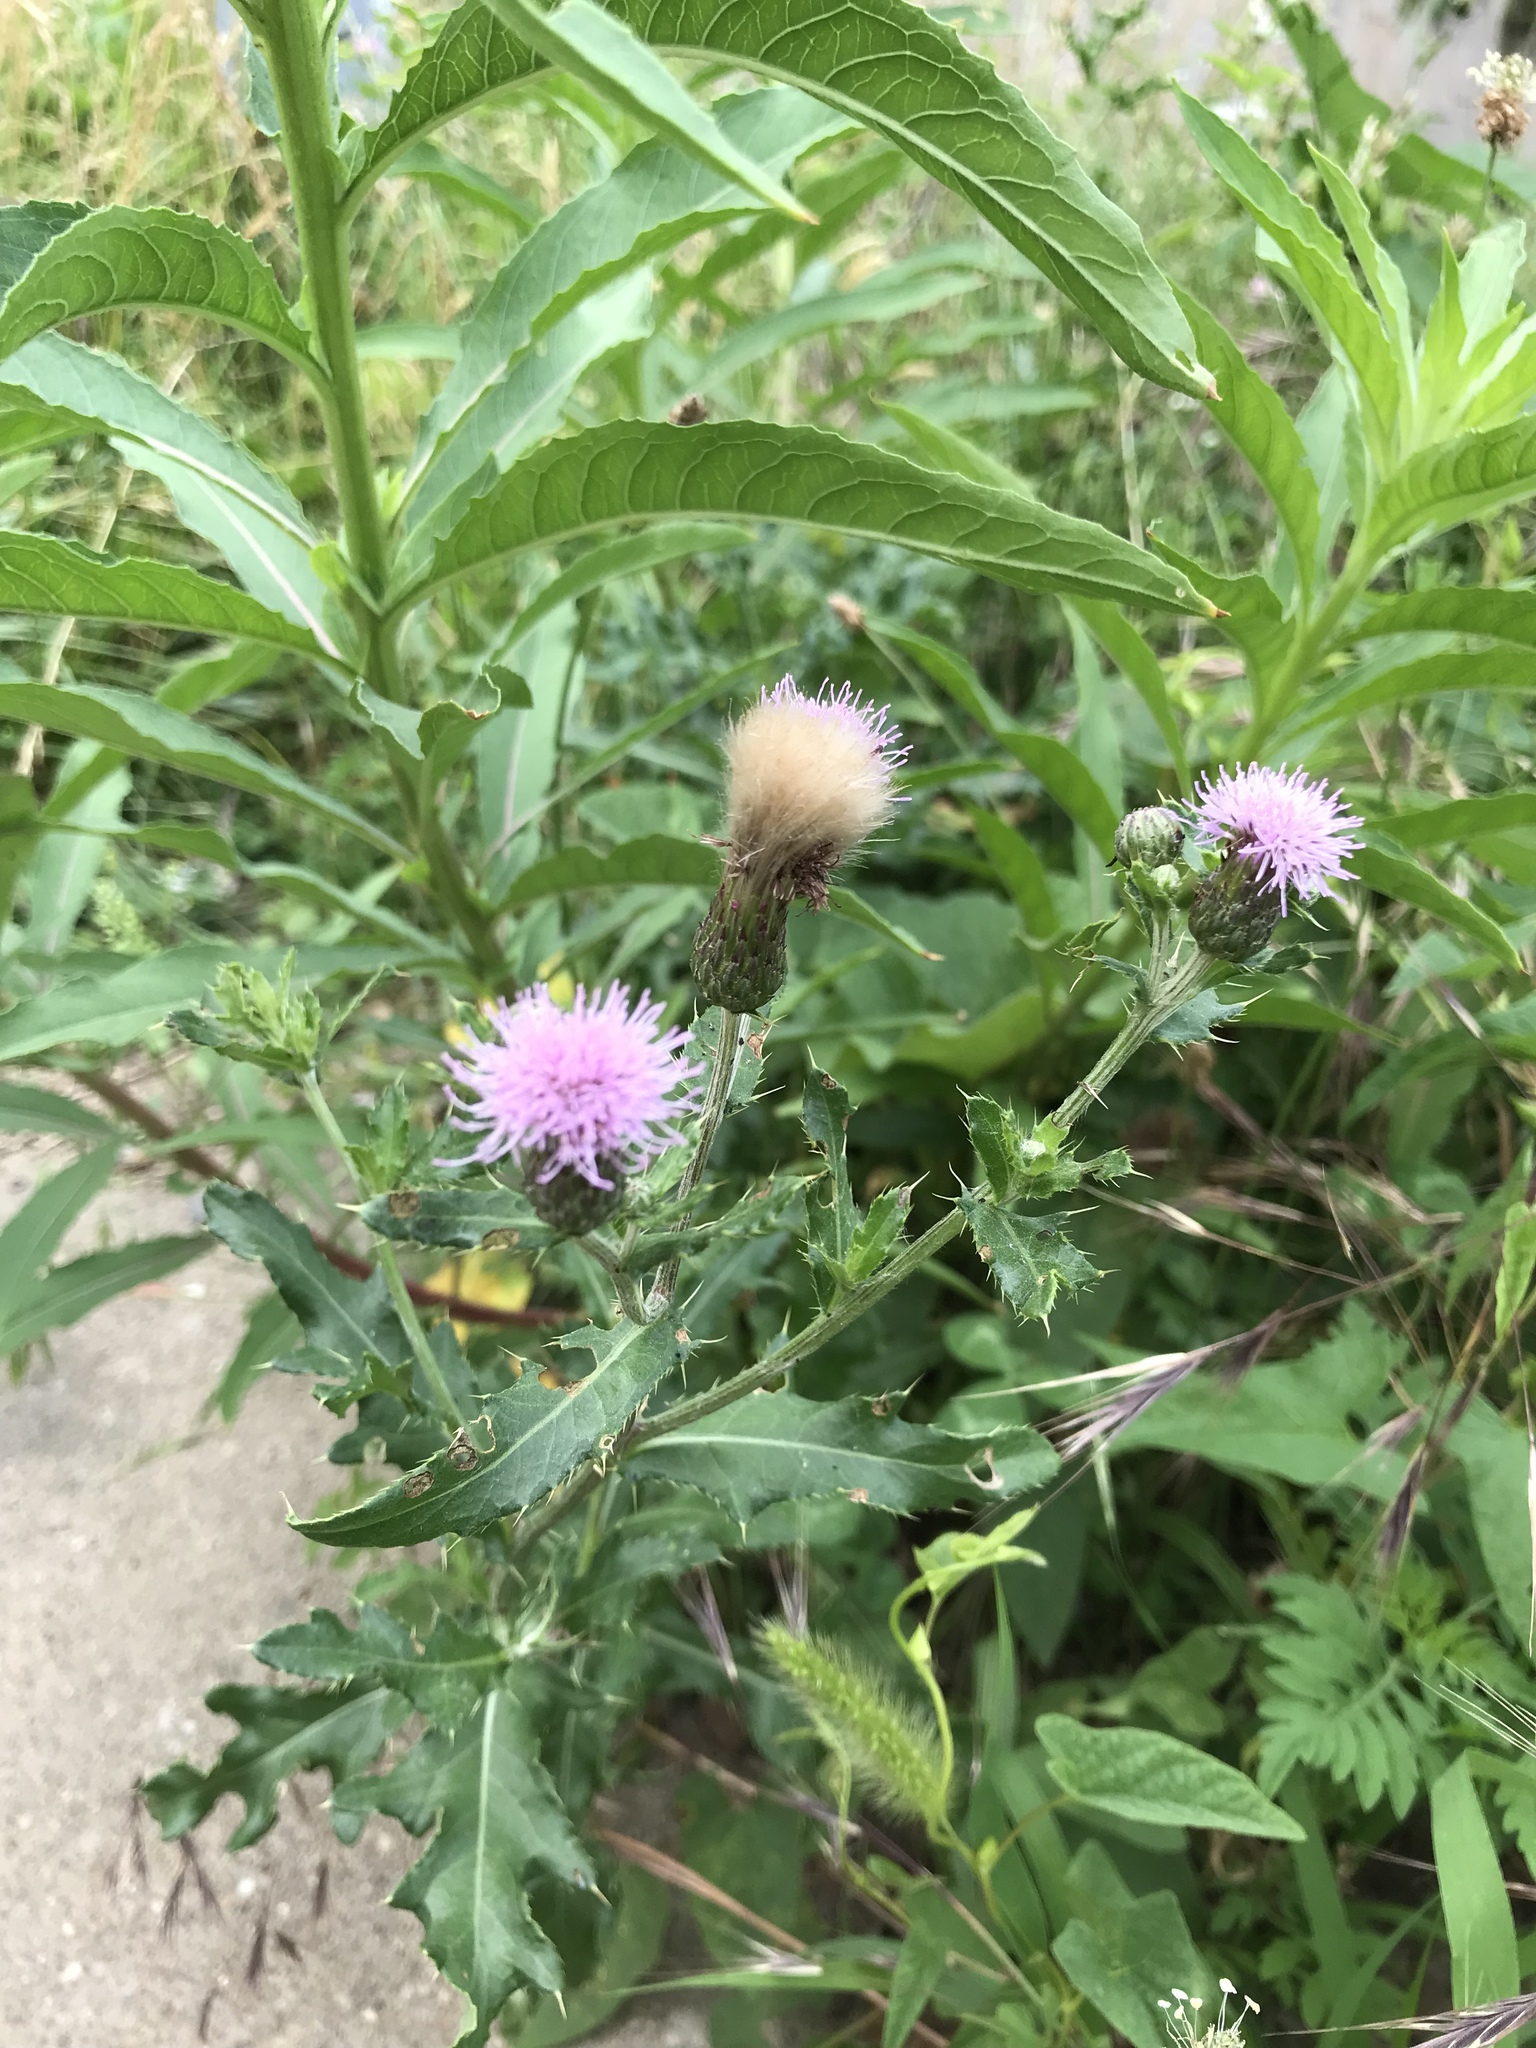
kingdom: Plantae
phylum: Tracheophyta
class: Magnoliopsida
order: Asterales
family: Asteraceae
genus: Cirsium
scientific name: Cirsium arvense
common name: Creeping thistle
